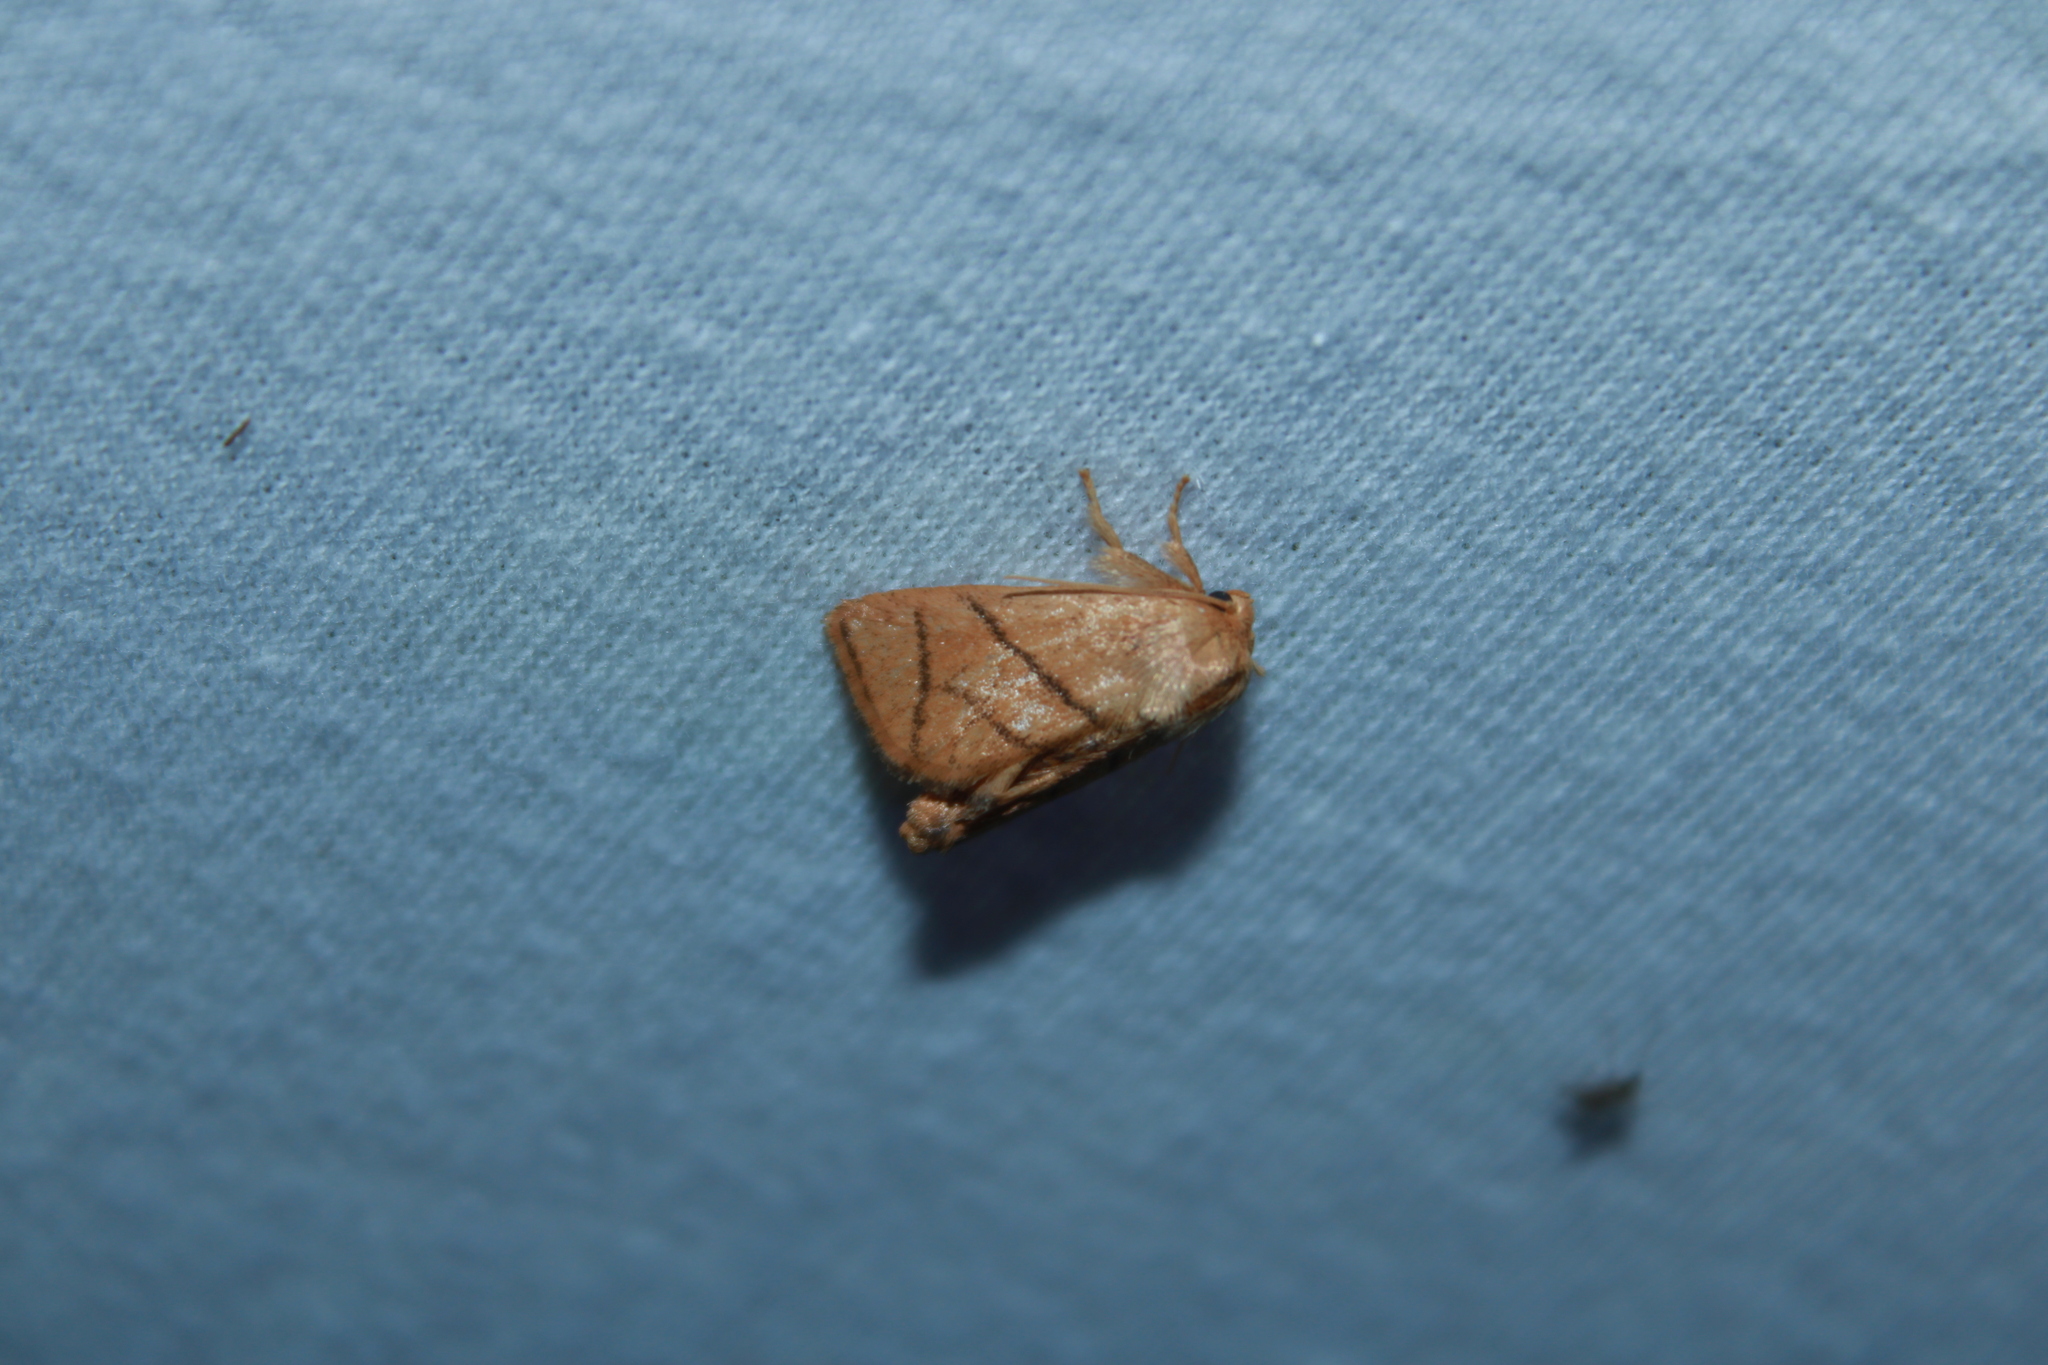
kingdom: Animalia
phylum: Arthropoda
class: Insecta
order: Lepidoptera
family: Limacodidae
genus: Apoda
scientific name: Apoda y-inversa
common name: Yellow-collared slug moth
